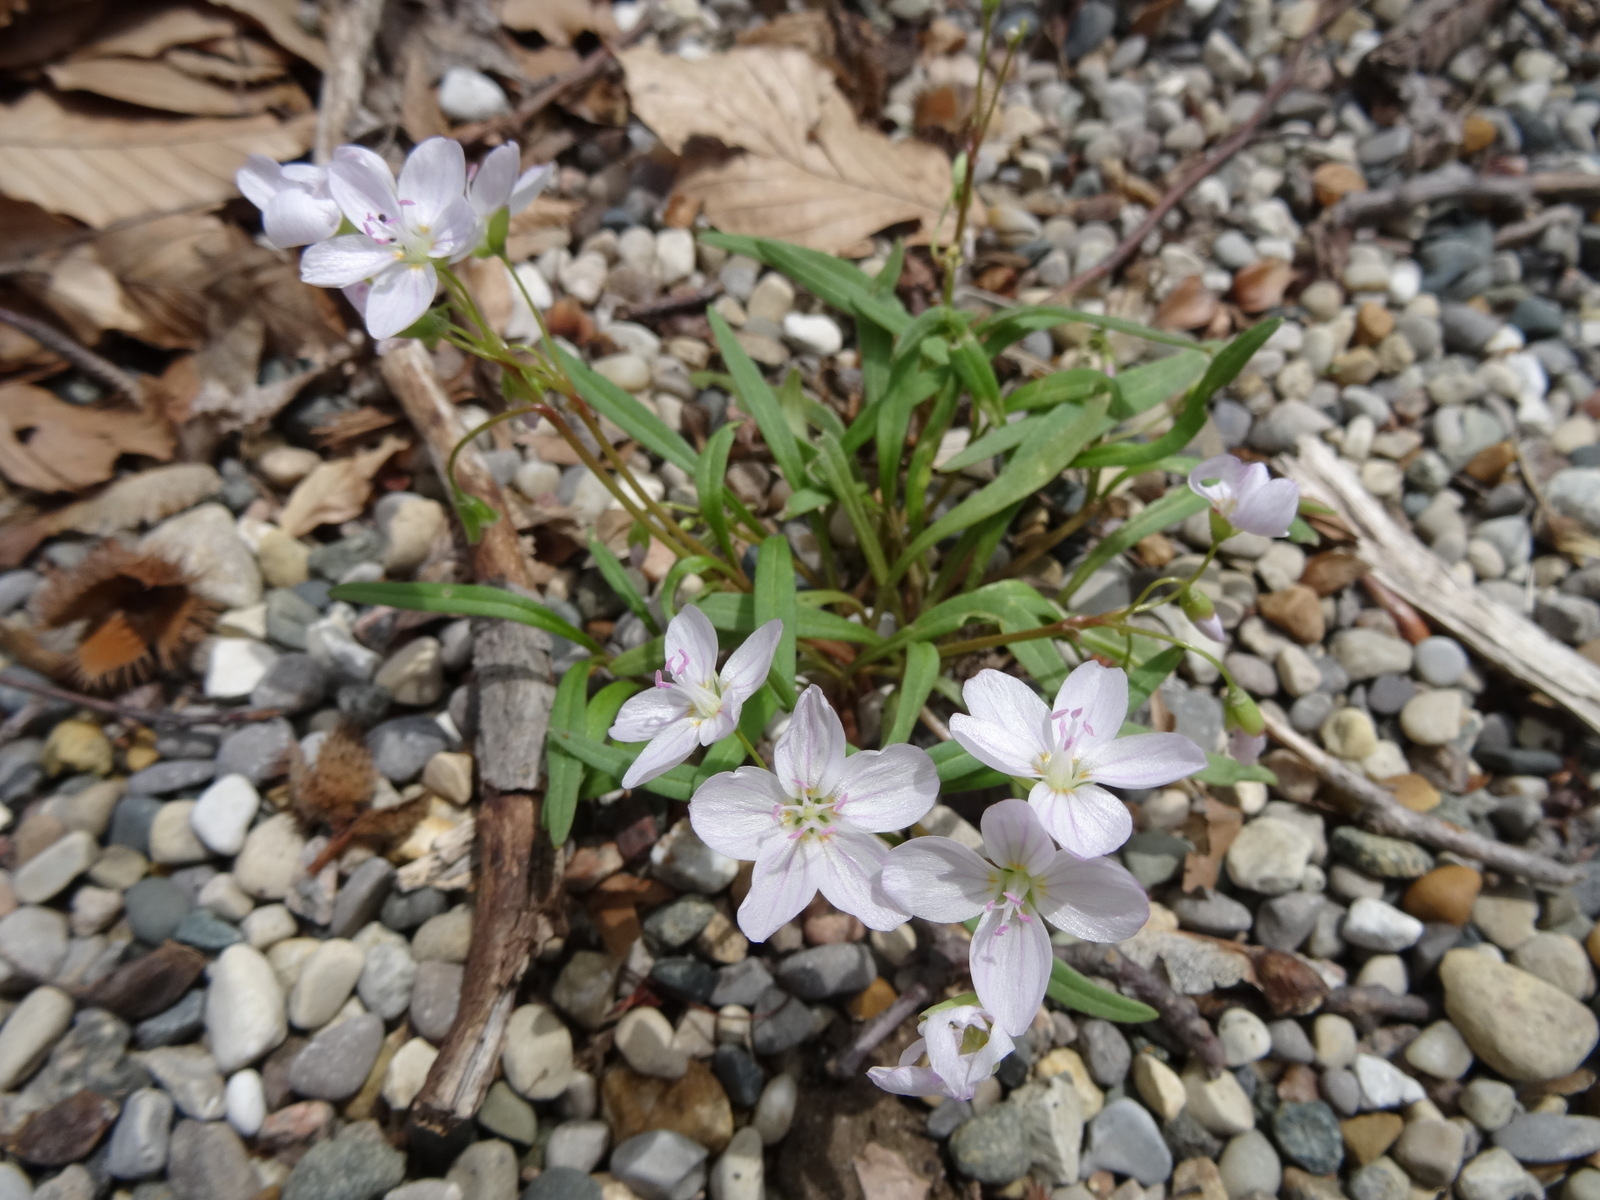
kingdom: Plantae
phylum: Tracheophyta
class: Magnoliopsida
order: Caryophyllales
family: Montiaceae
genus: Claytonia
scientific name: Claytonia virginica
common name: Virginia springbeauty
